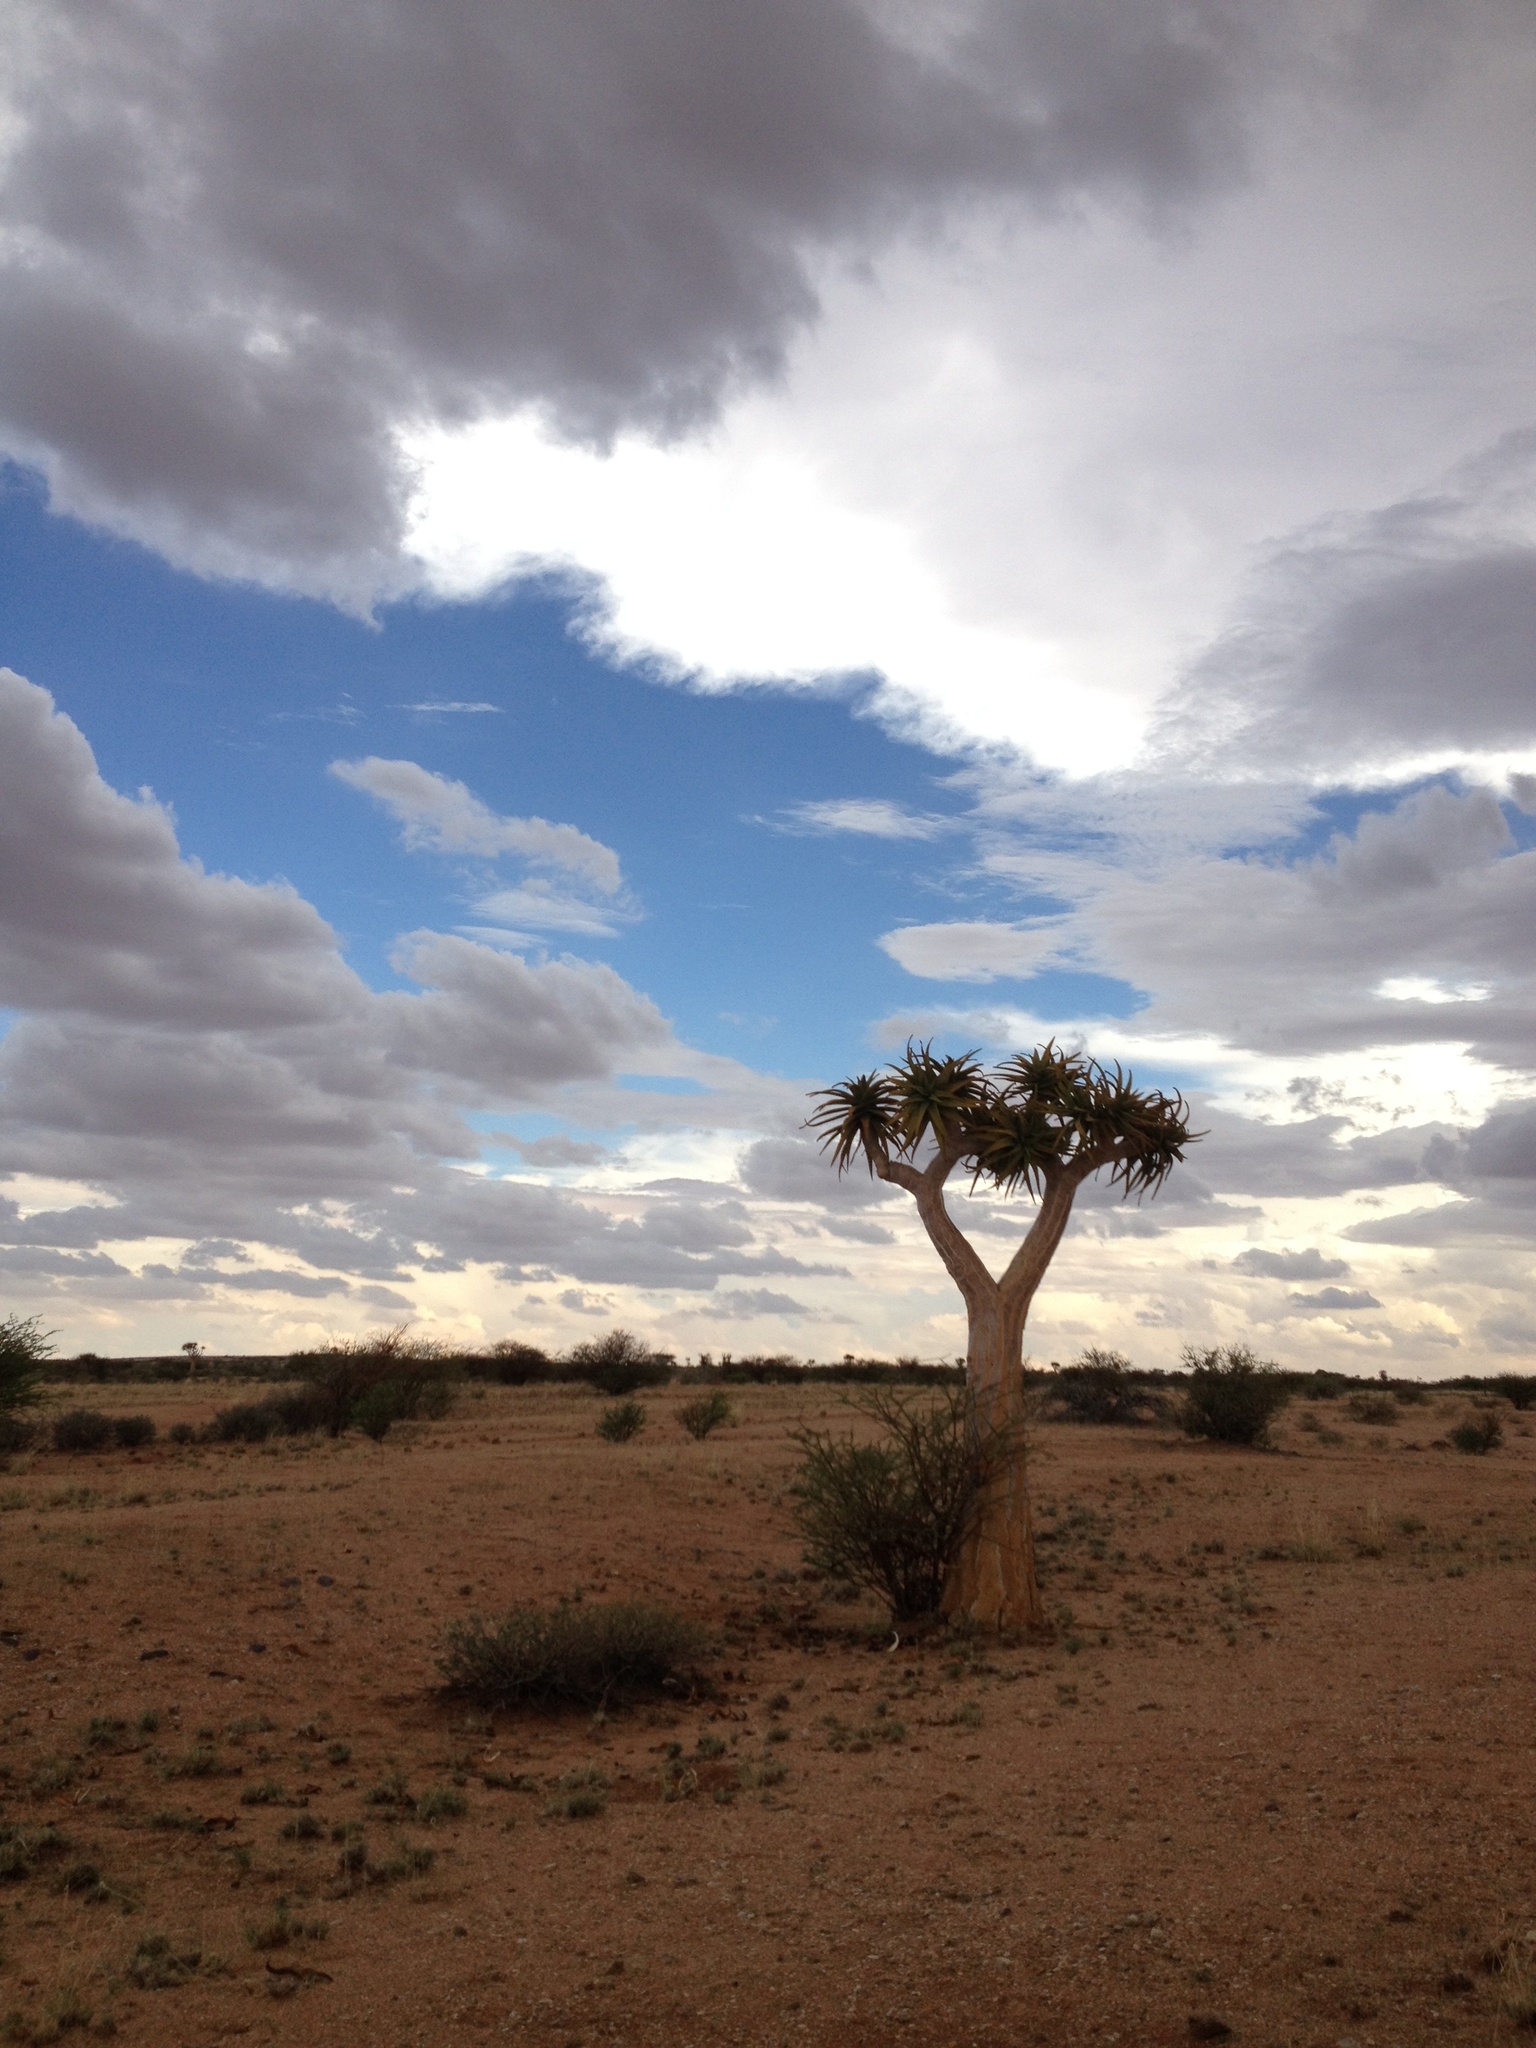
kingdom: Plantae
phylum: Tracheophyta
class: Liliopsida
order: Asparagales
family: Asphodelaceae
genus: Aloidendron
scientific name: Aloidendron dichotomum
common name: Quiver tree
